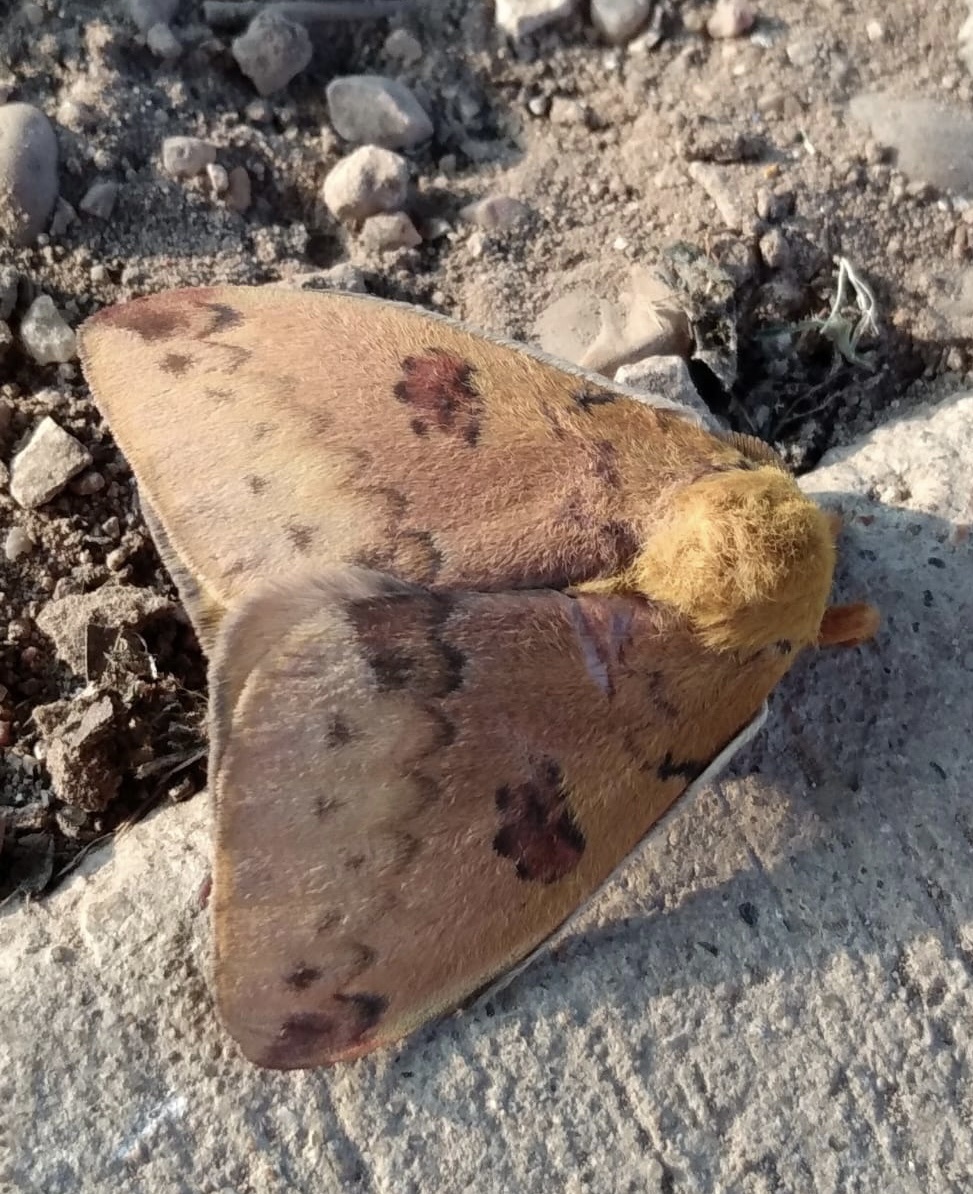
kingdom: Animalia
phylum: Arthropoda
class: Insecta
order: Lepidoptera
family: Saturniidae
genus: Automeris
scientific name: Automeris io
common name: Io moth
